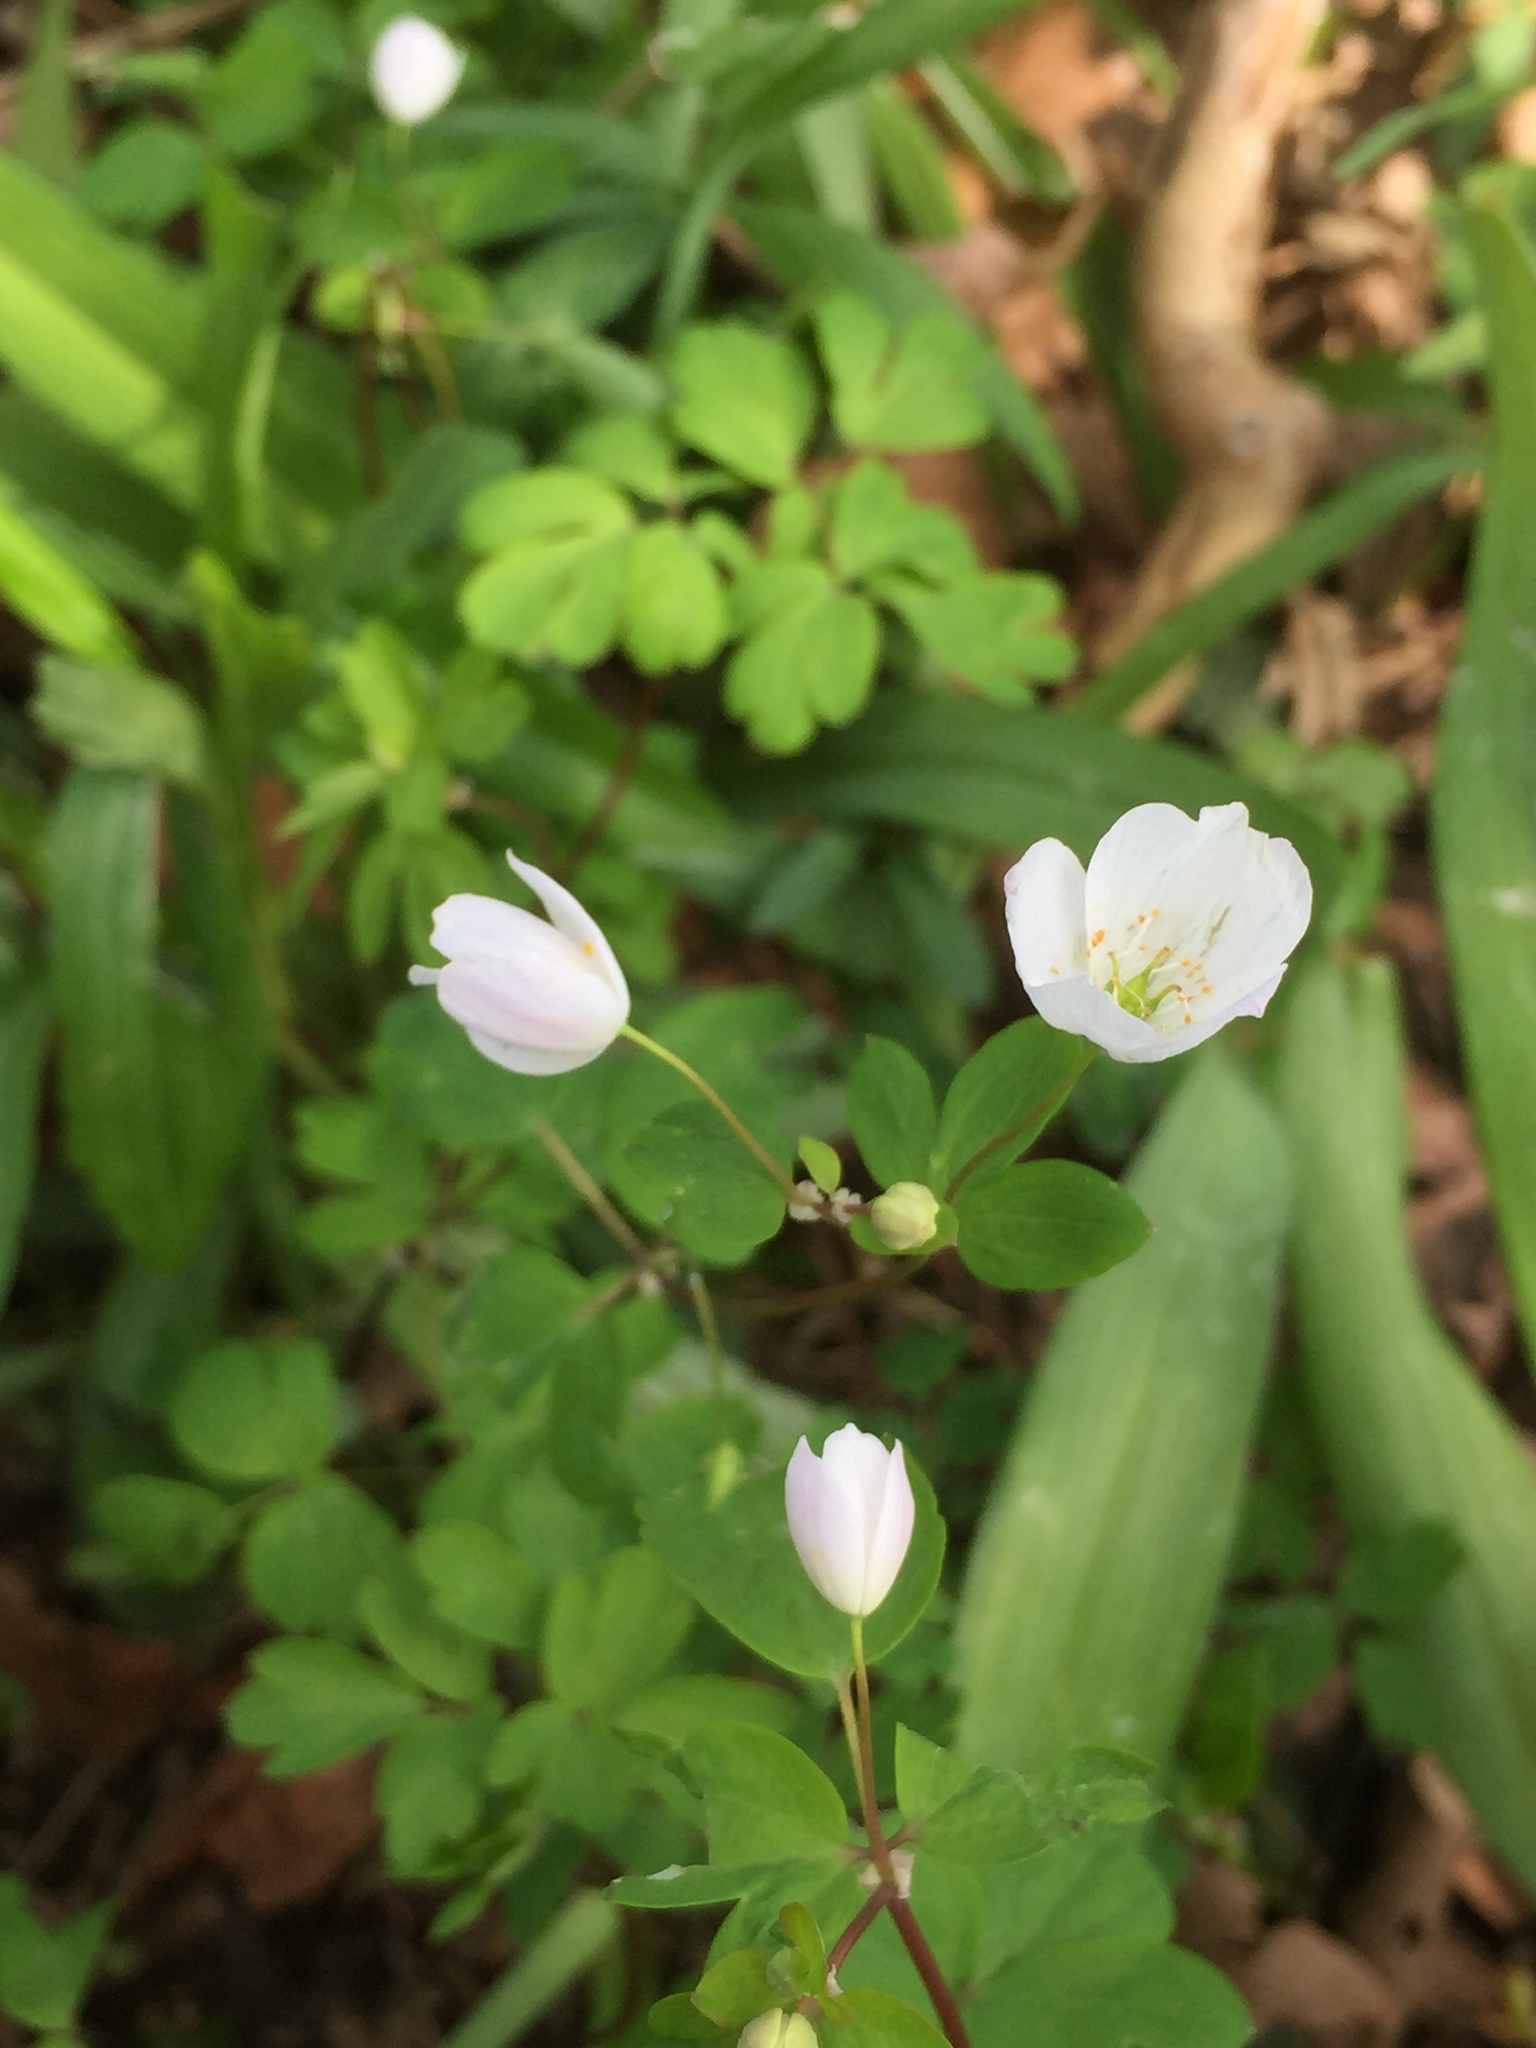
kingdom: Plantae
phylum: Tracheophyta
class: Magnoliopsida
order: Ranunculales
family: Ranunculaceae
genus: Enemion
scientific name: Enemion biternatum
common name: Eastern false rue-anemone
